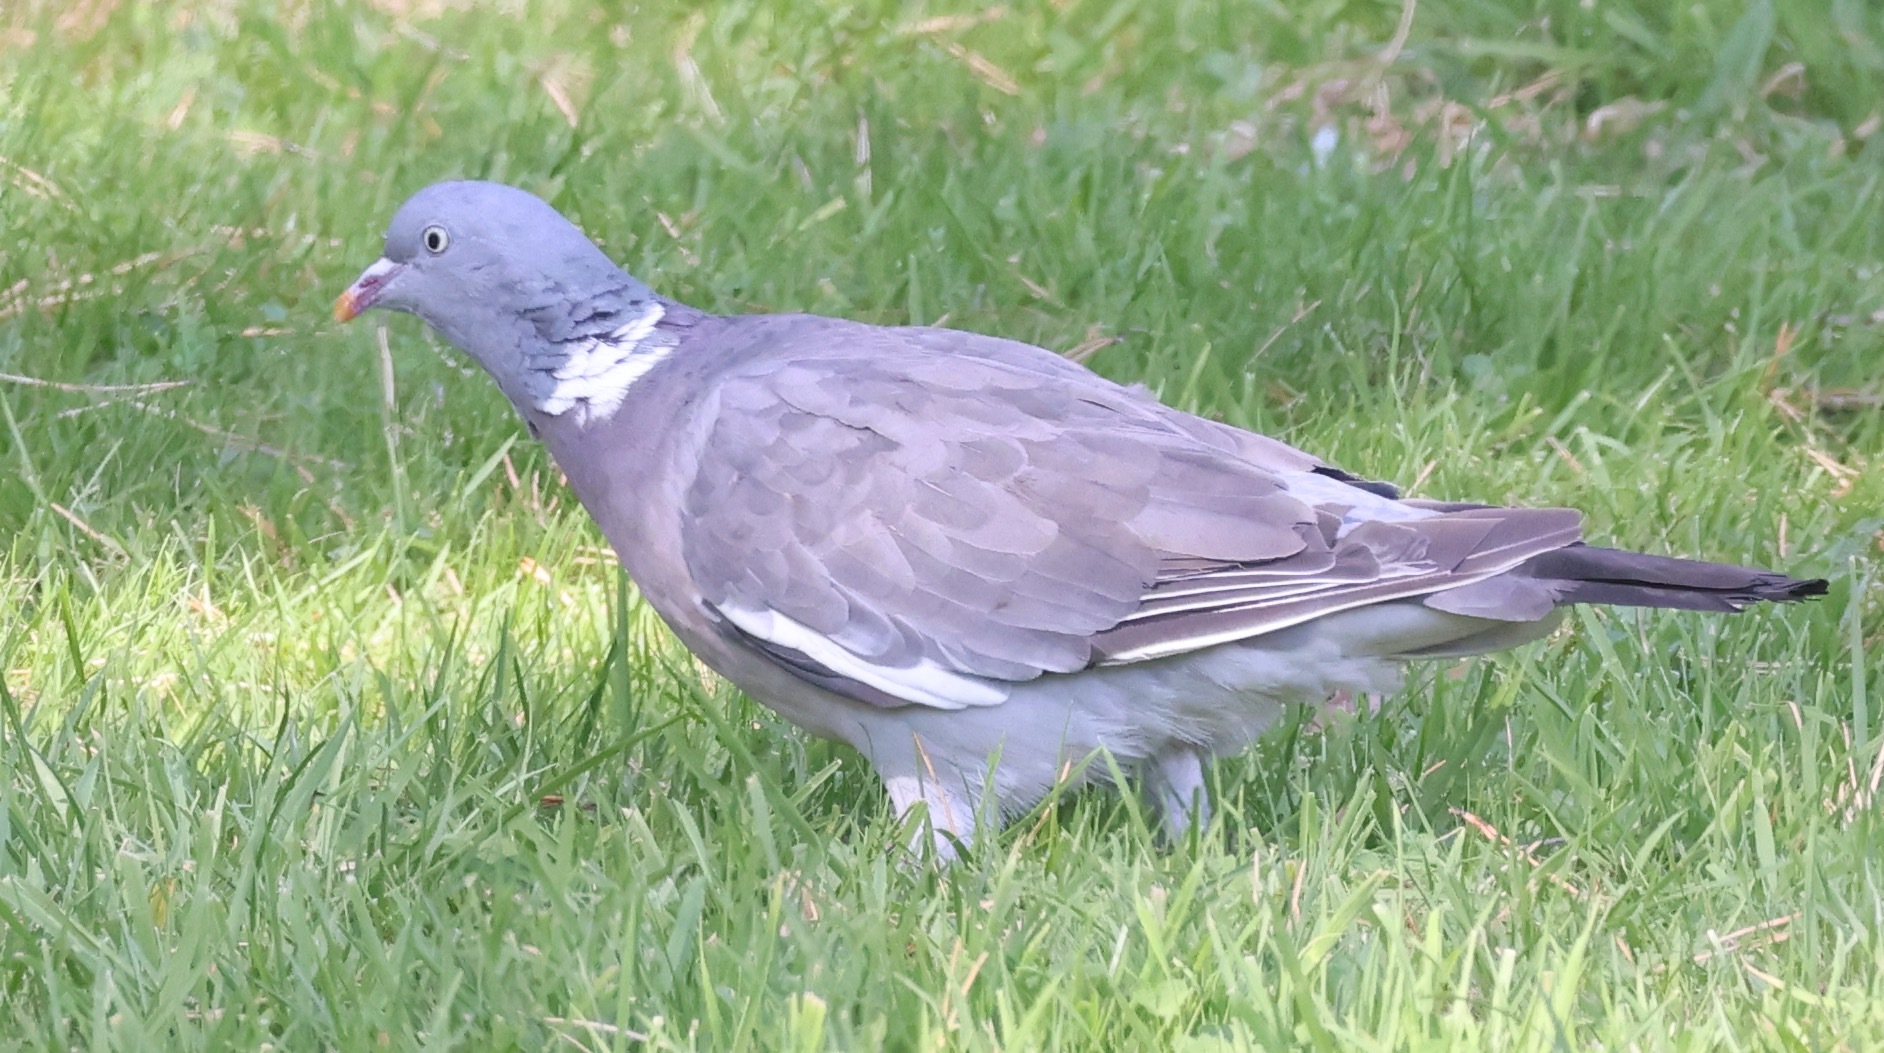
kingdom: Animalia
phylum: Chordata
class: Aves
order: Columbiformes
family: Columbidae
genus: Columba
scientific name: Columba palumbus
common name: Common wood pigeon
